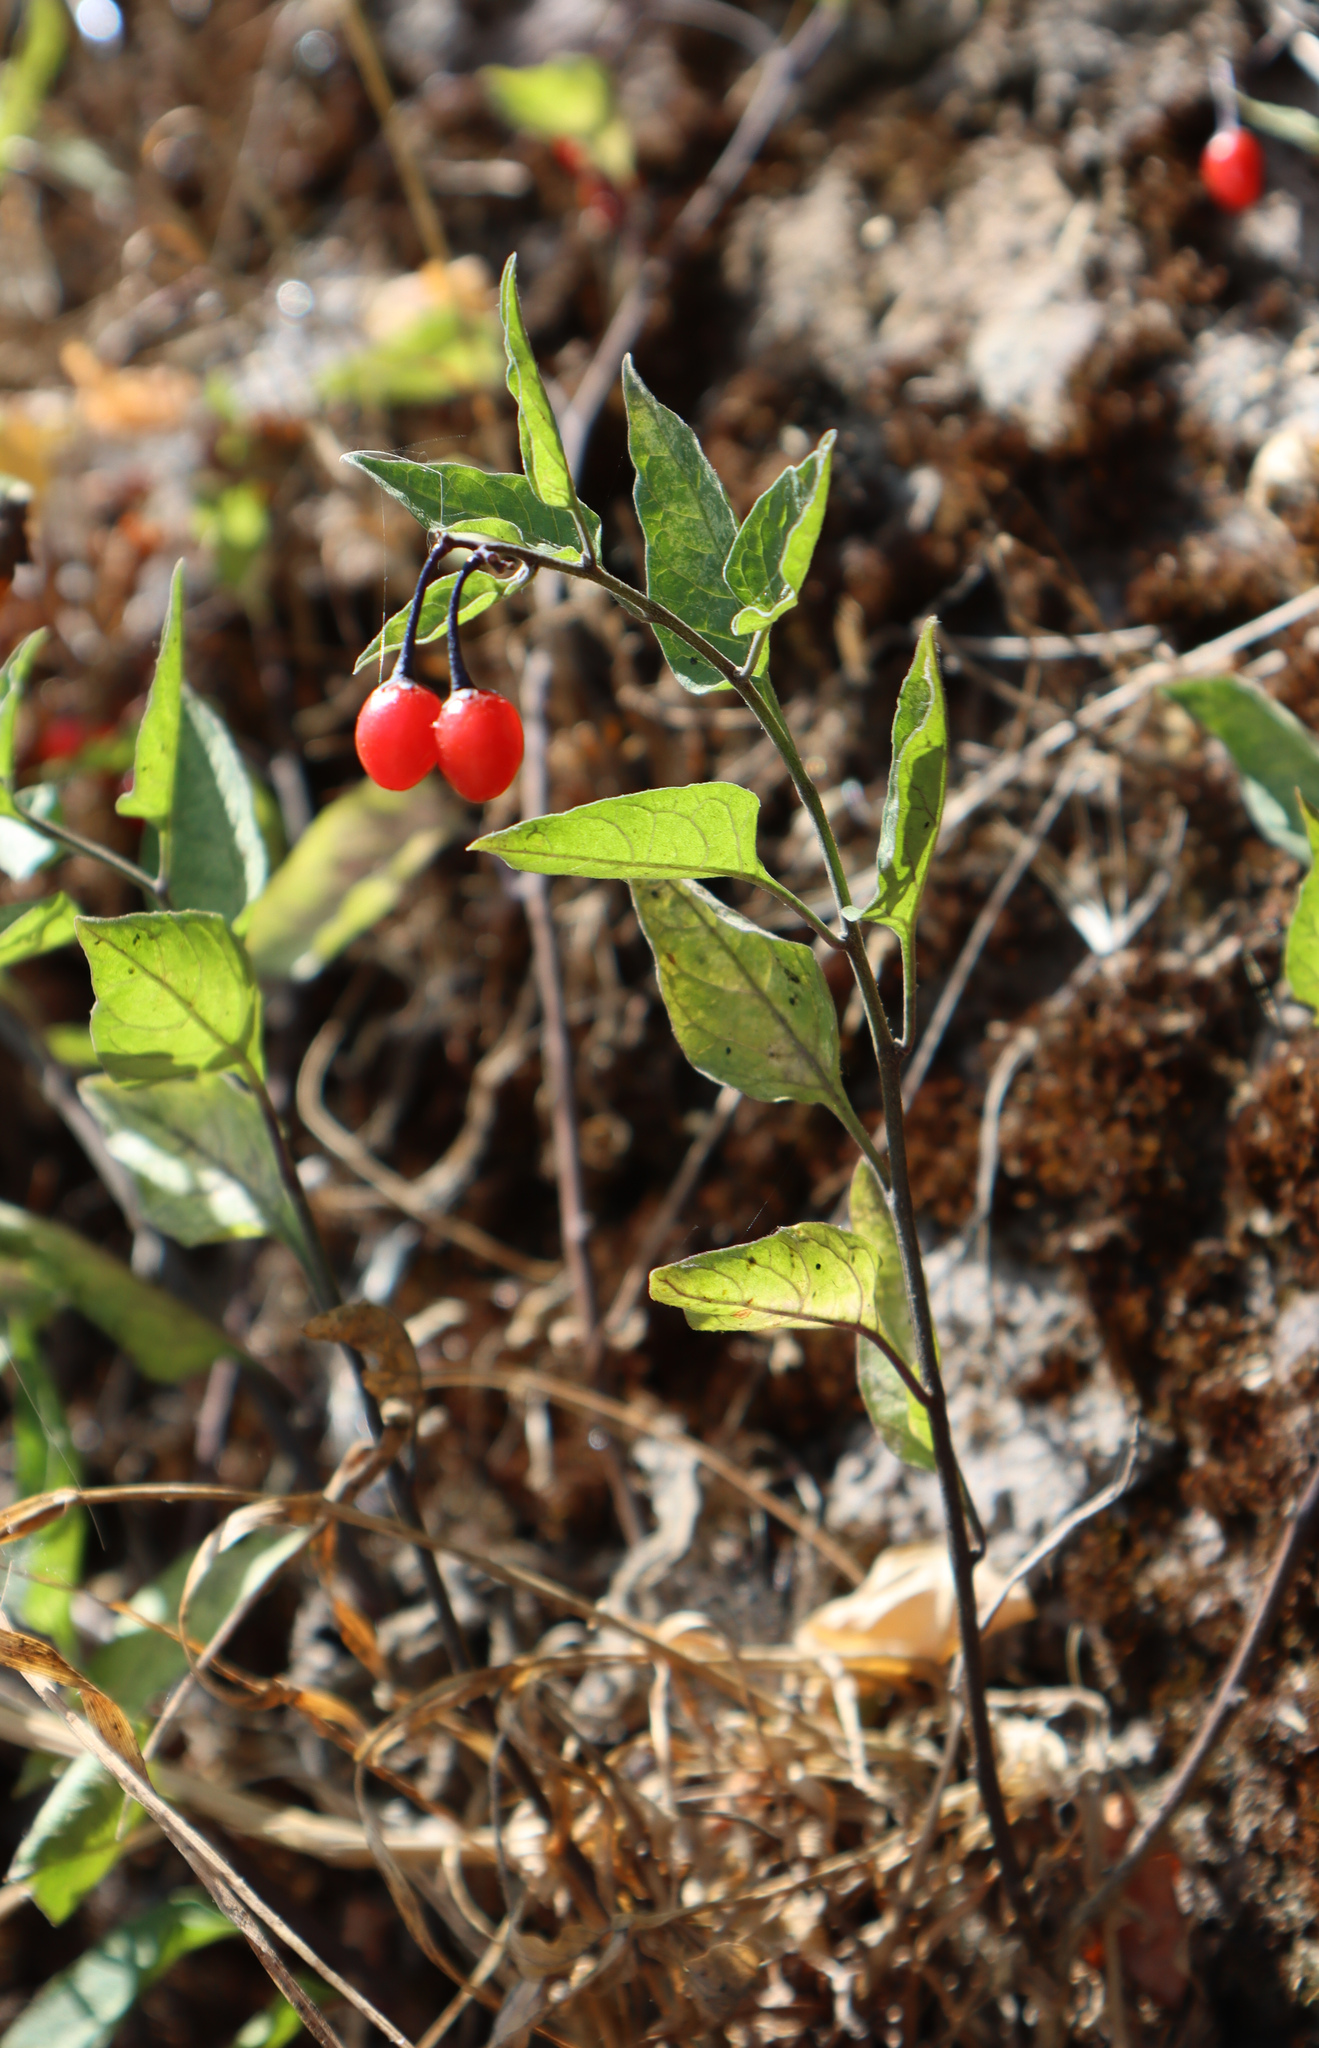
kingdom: Plantae
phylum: Tracheophyta
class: Magnoliopsida
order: Solanales
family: Solanaceae
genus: Solanum
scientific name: Solanum dulcamara
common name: Climbing nightshade
